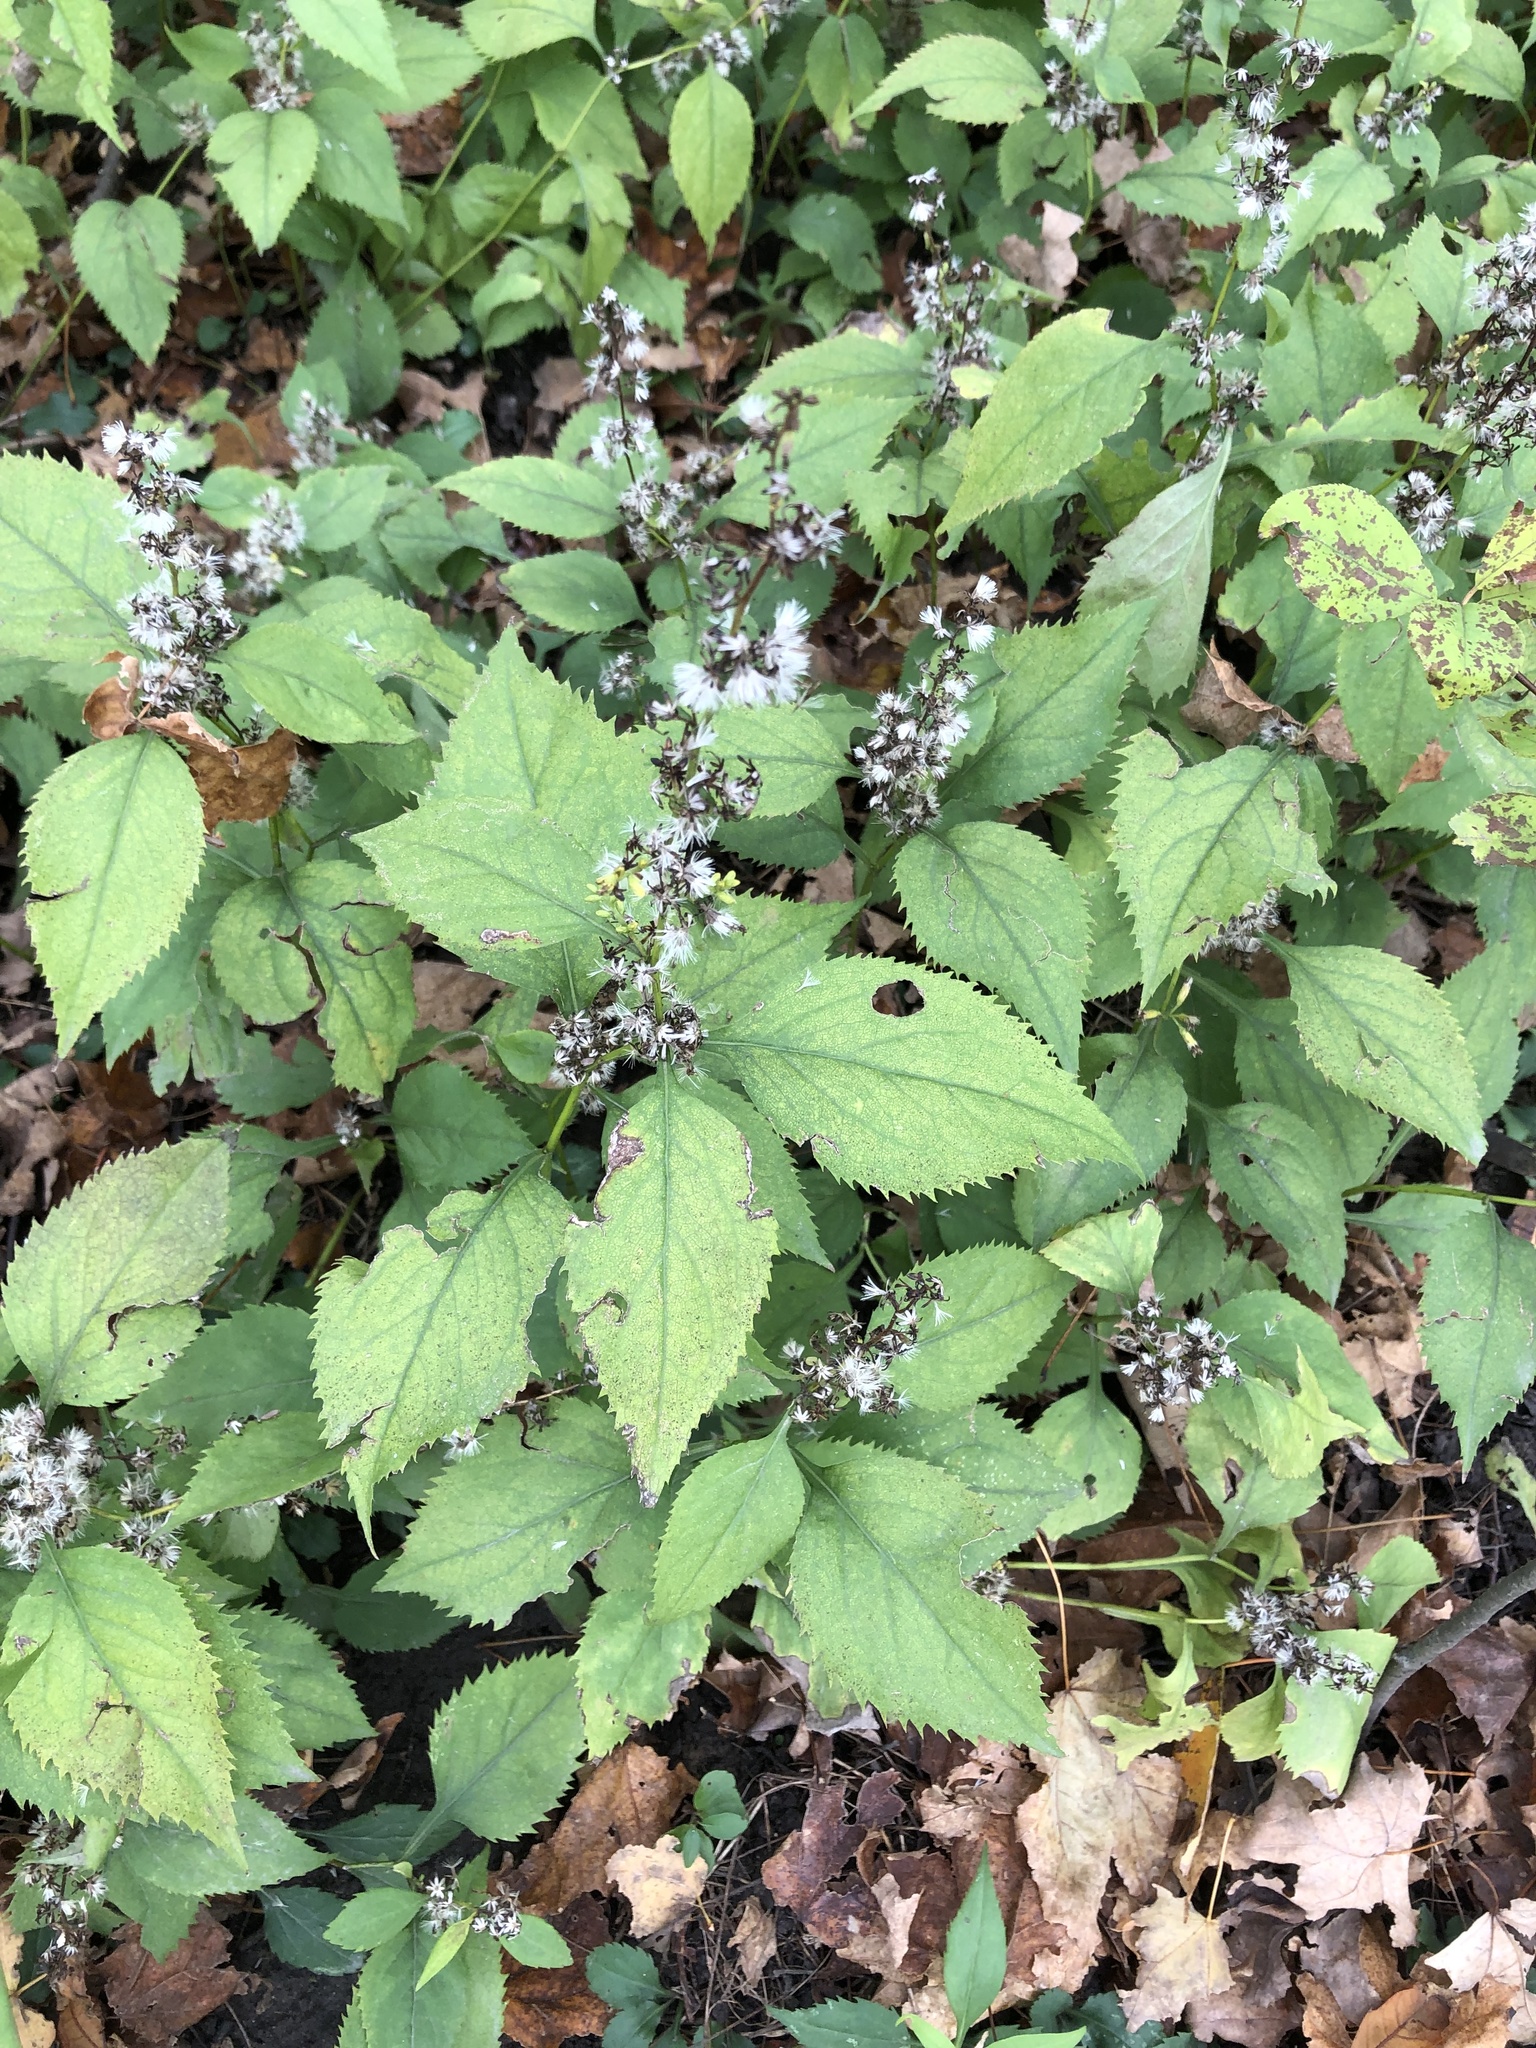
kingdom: Plantae
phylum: Tracheophyta
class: Magnoliopsida
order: Asterales
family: Asteraceae
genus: Solidago
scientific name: Solidago flexicaulis
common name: Zig-zag goldenrod
